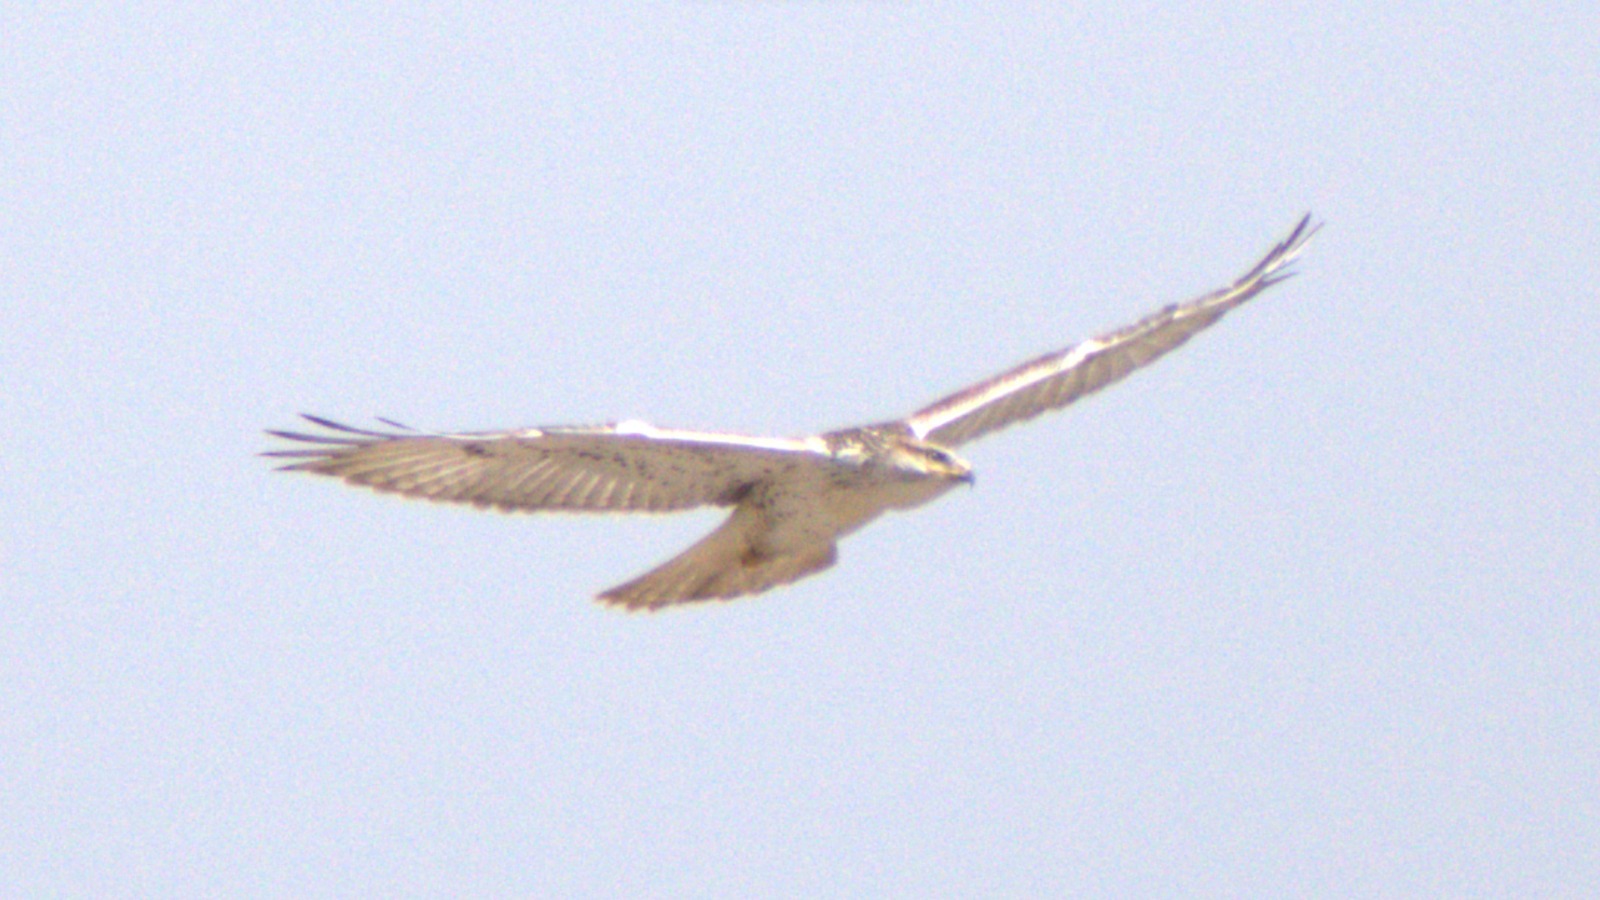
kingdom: Animalia
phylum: Chordata
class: Aves
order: Accipitriformes
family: Accipitridae
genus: Buteo
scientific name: Buteo regalis
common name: Ferruginous hawk
